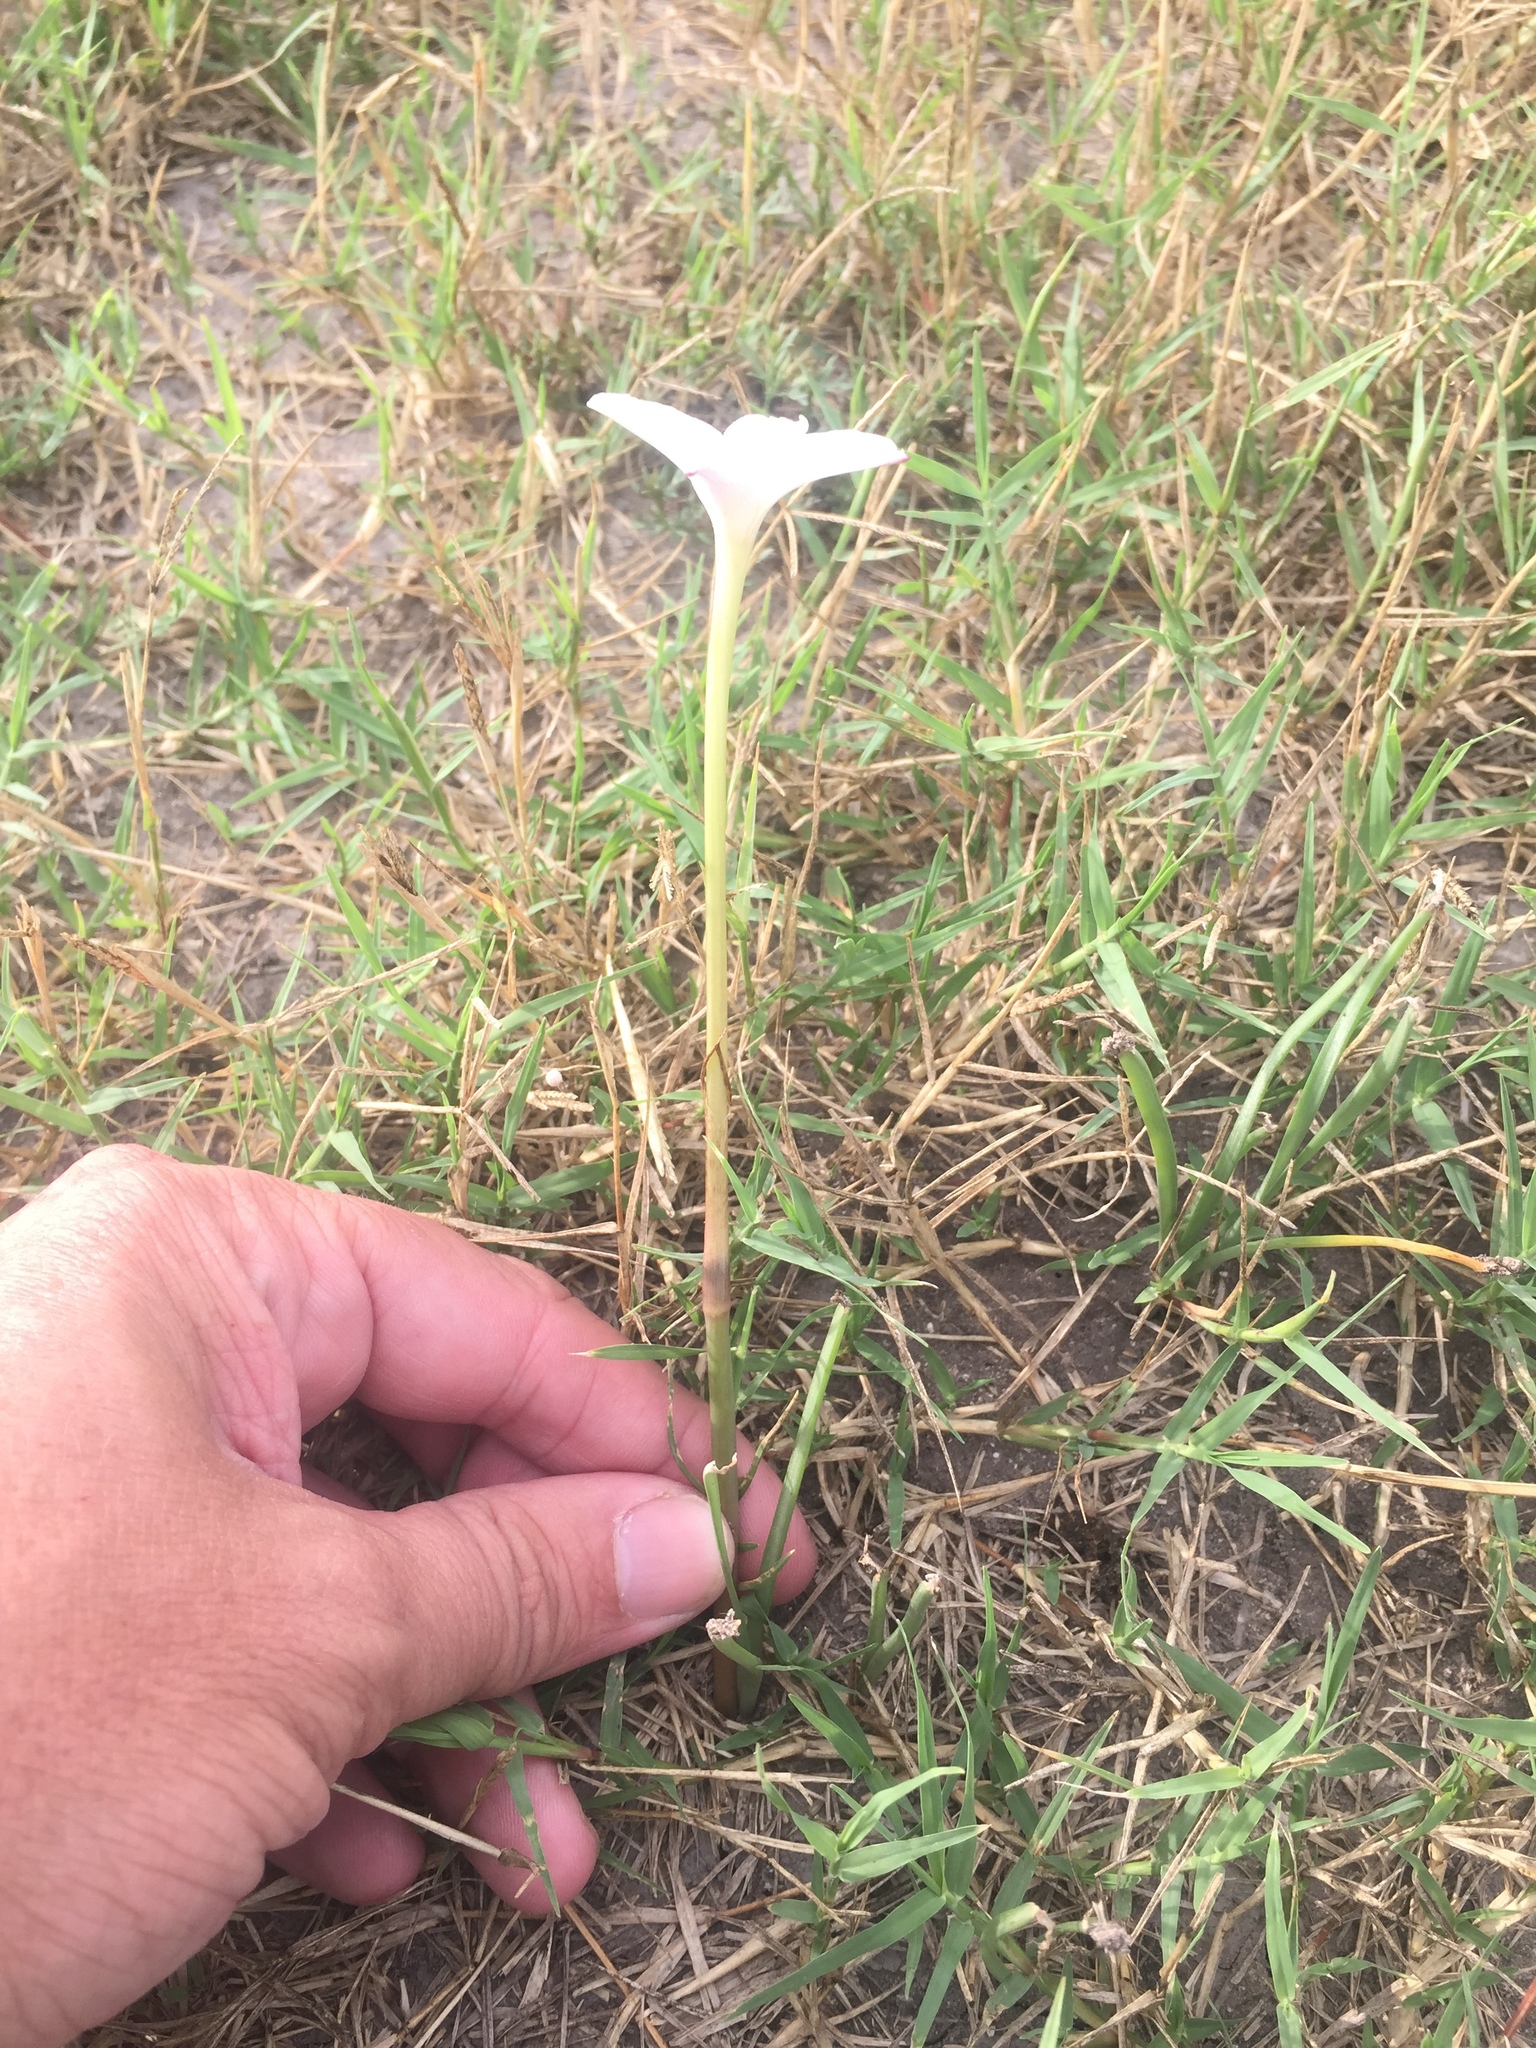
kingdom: Plantae
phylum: Tracheophyta
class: Liliopsida
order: Asparagales
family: Amaryllidaceae
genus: Zephyranthes
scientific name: Zephyranthes chlorosolen
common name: Evening rain-lily
